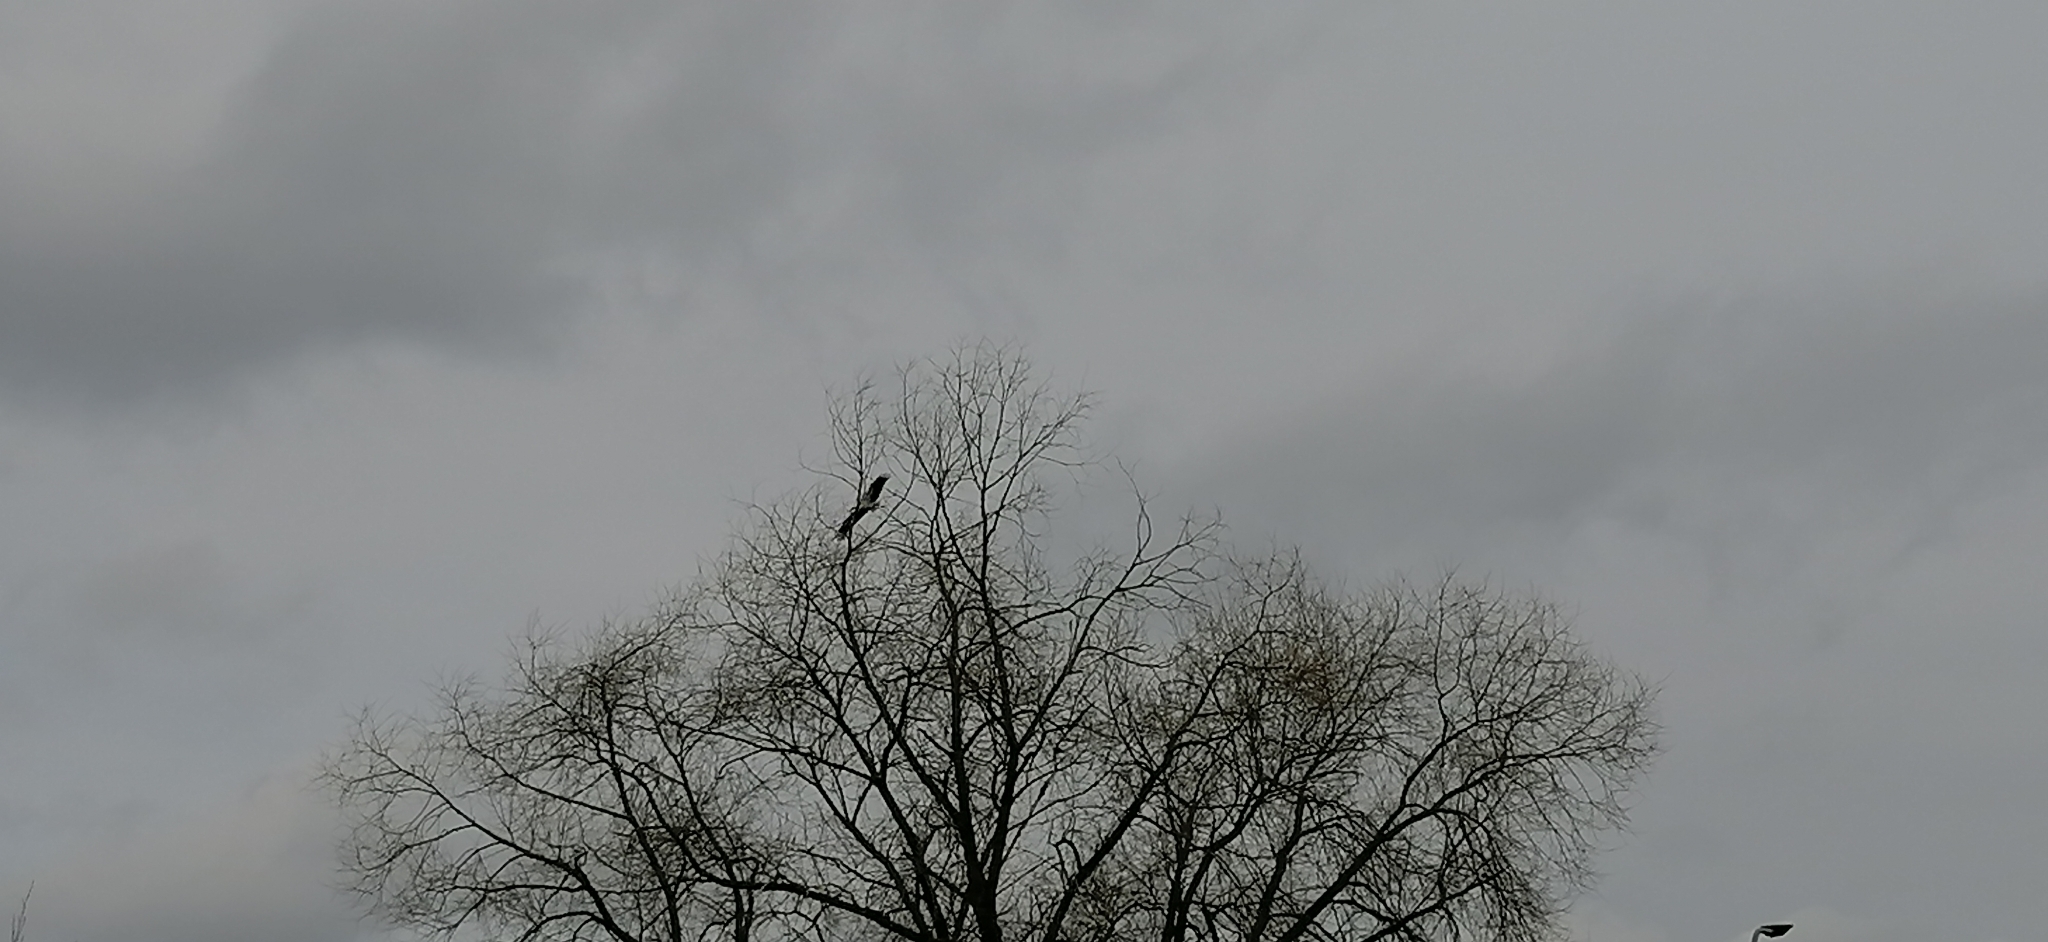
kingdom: Animalia
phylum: Chordata
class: Aves
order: Ciconiiformes
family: Ciconiidae
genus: Ciconia
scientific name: Ciconia ciconia
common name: White stork
